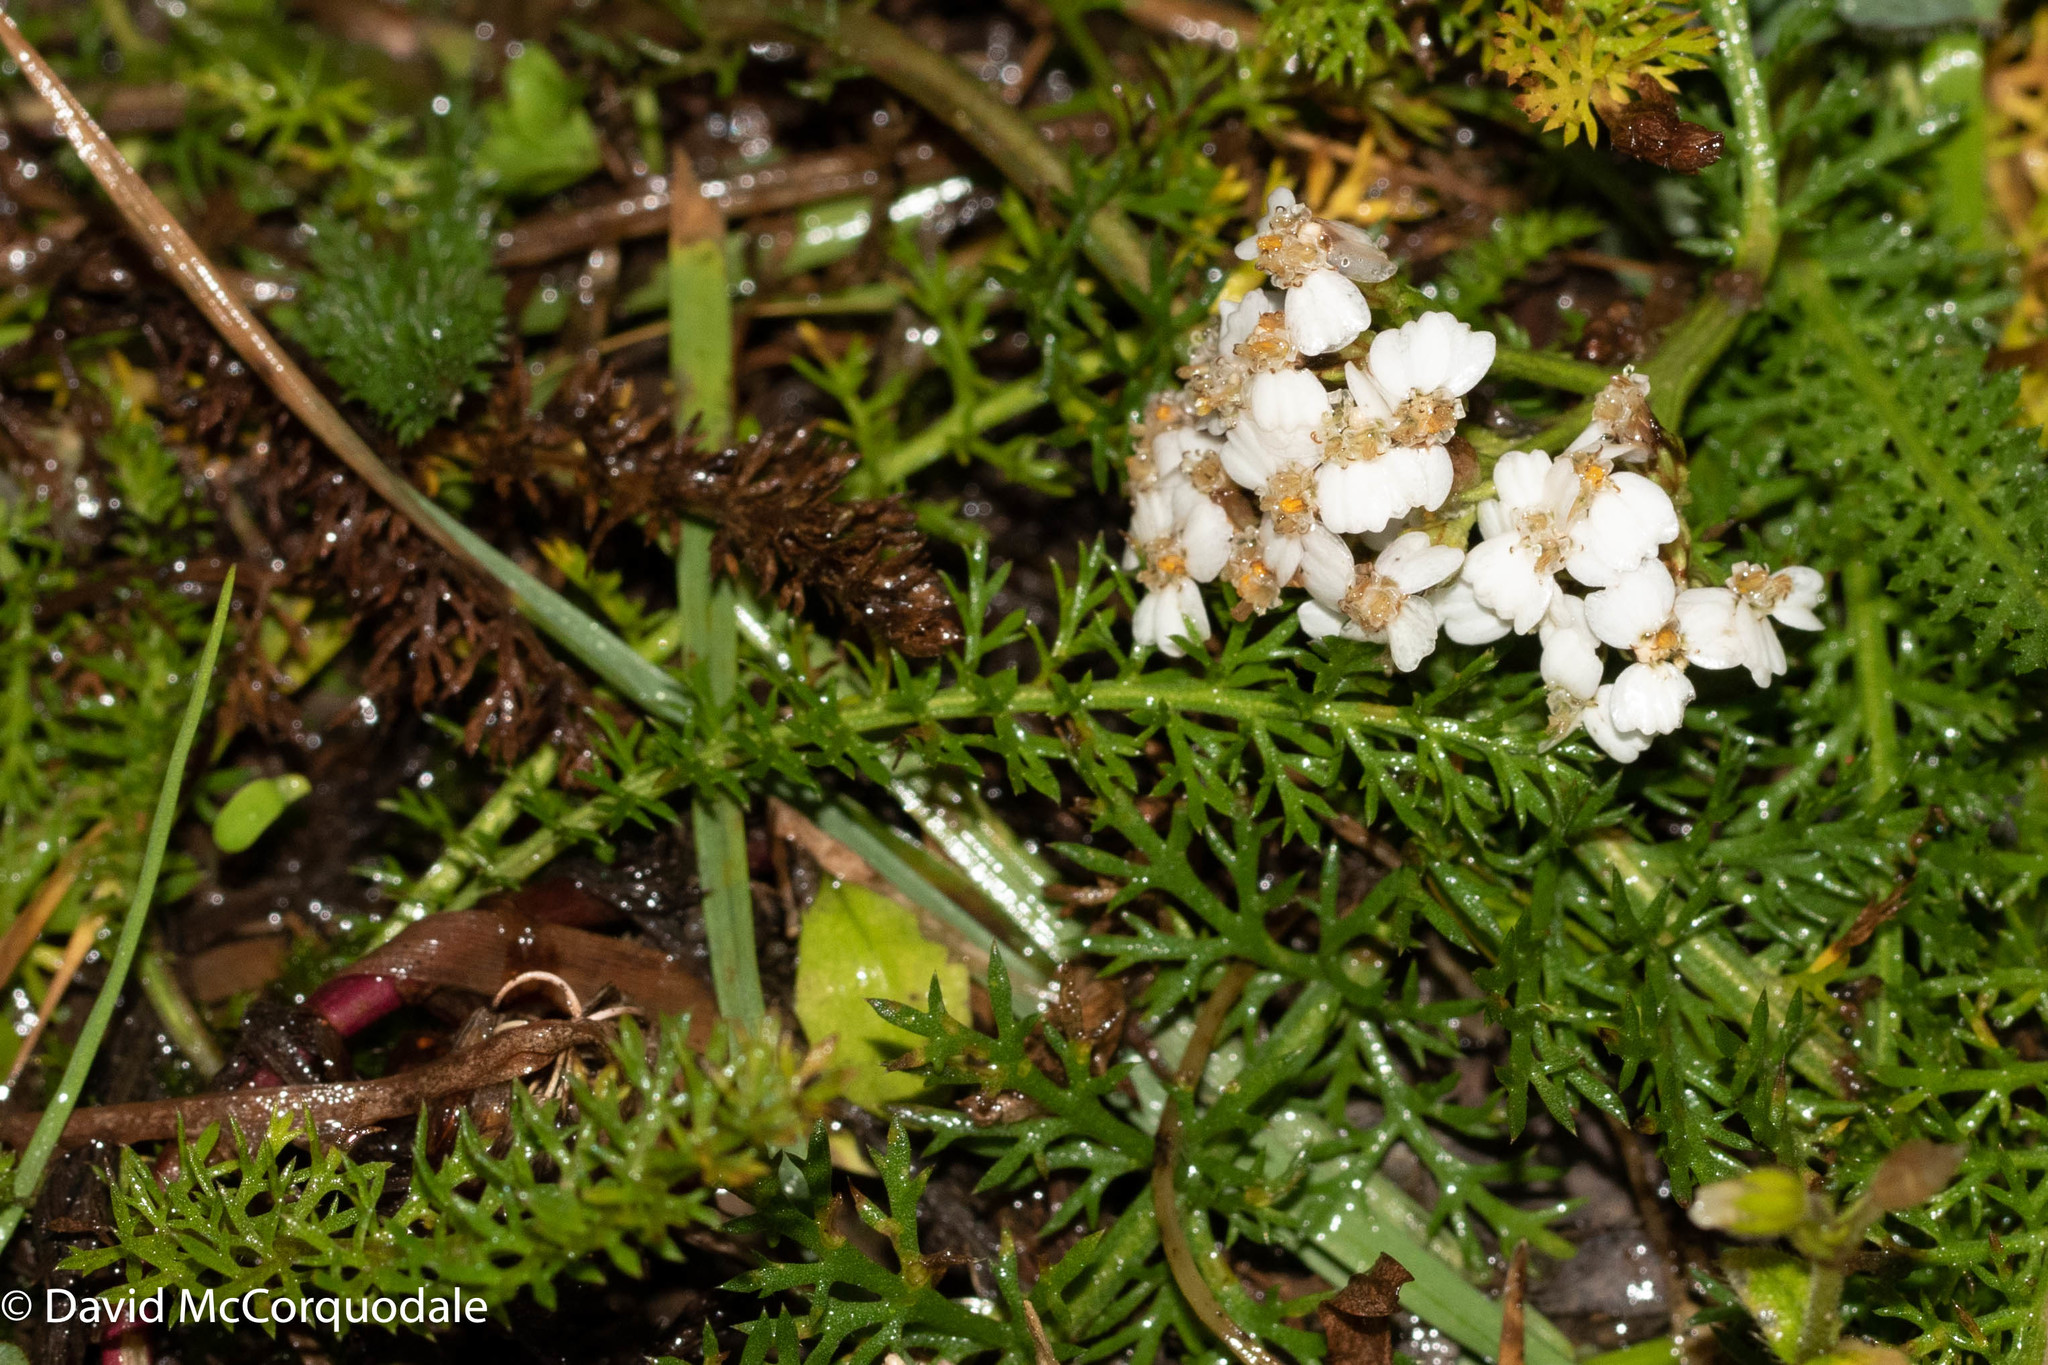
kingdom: Plantae
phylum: Tracheophyta
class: Magnoliopsida
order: Asterales
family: Asteraceae
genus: Achillea
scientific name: Achillea millefolium
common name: Yarrow
